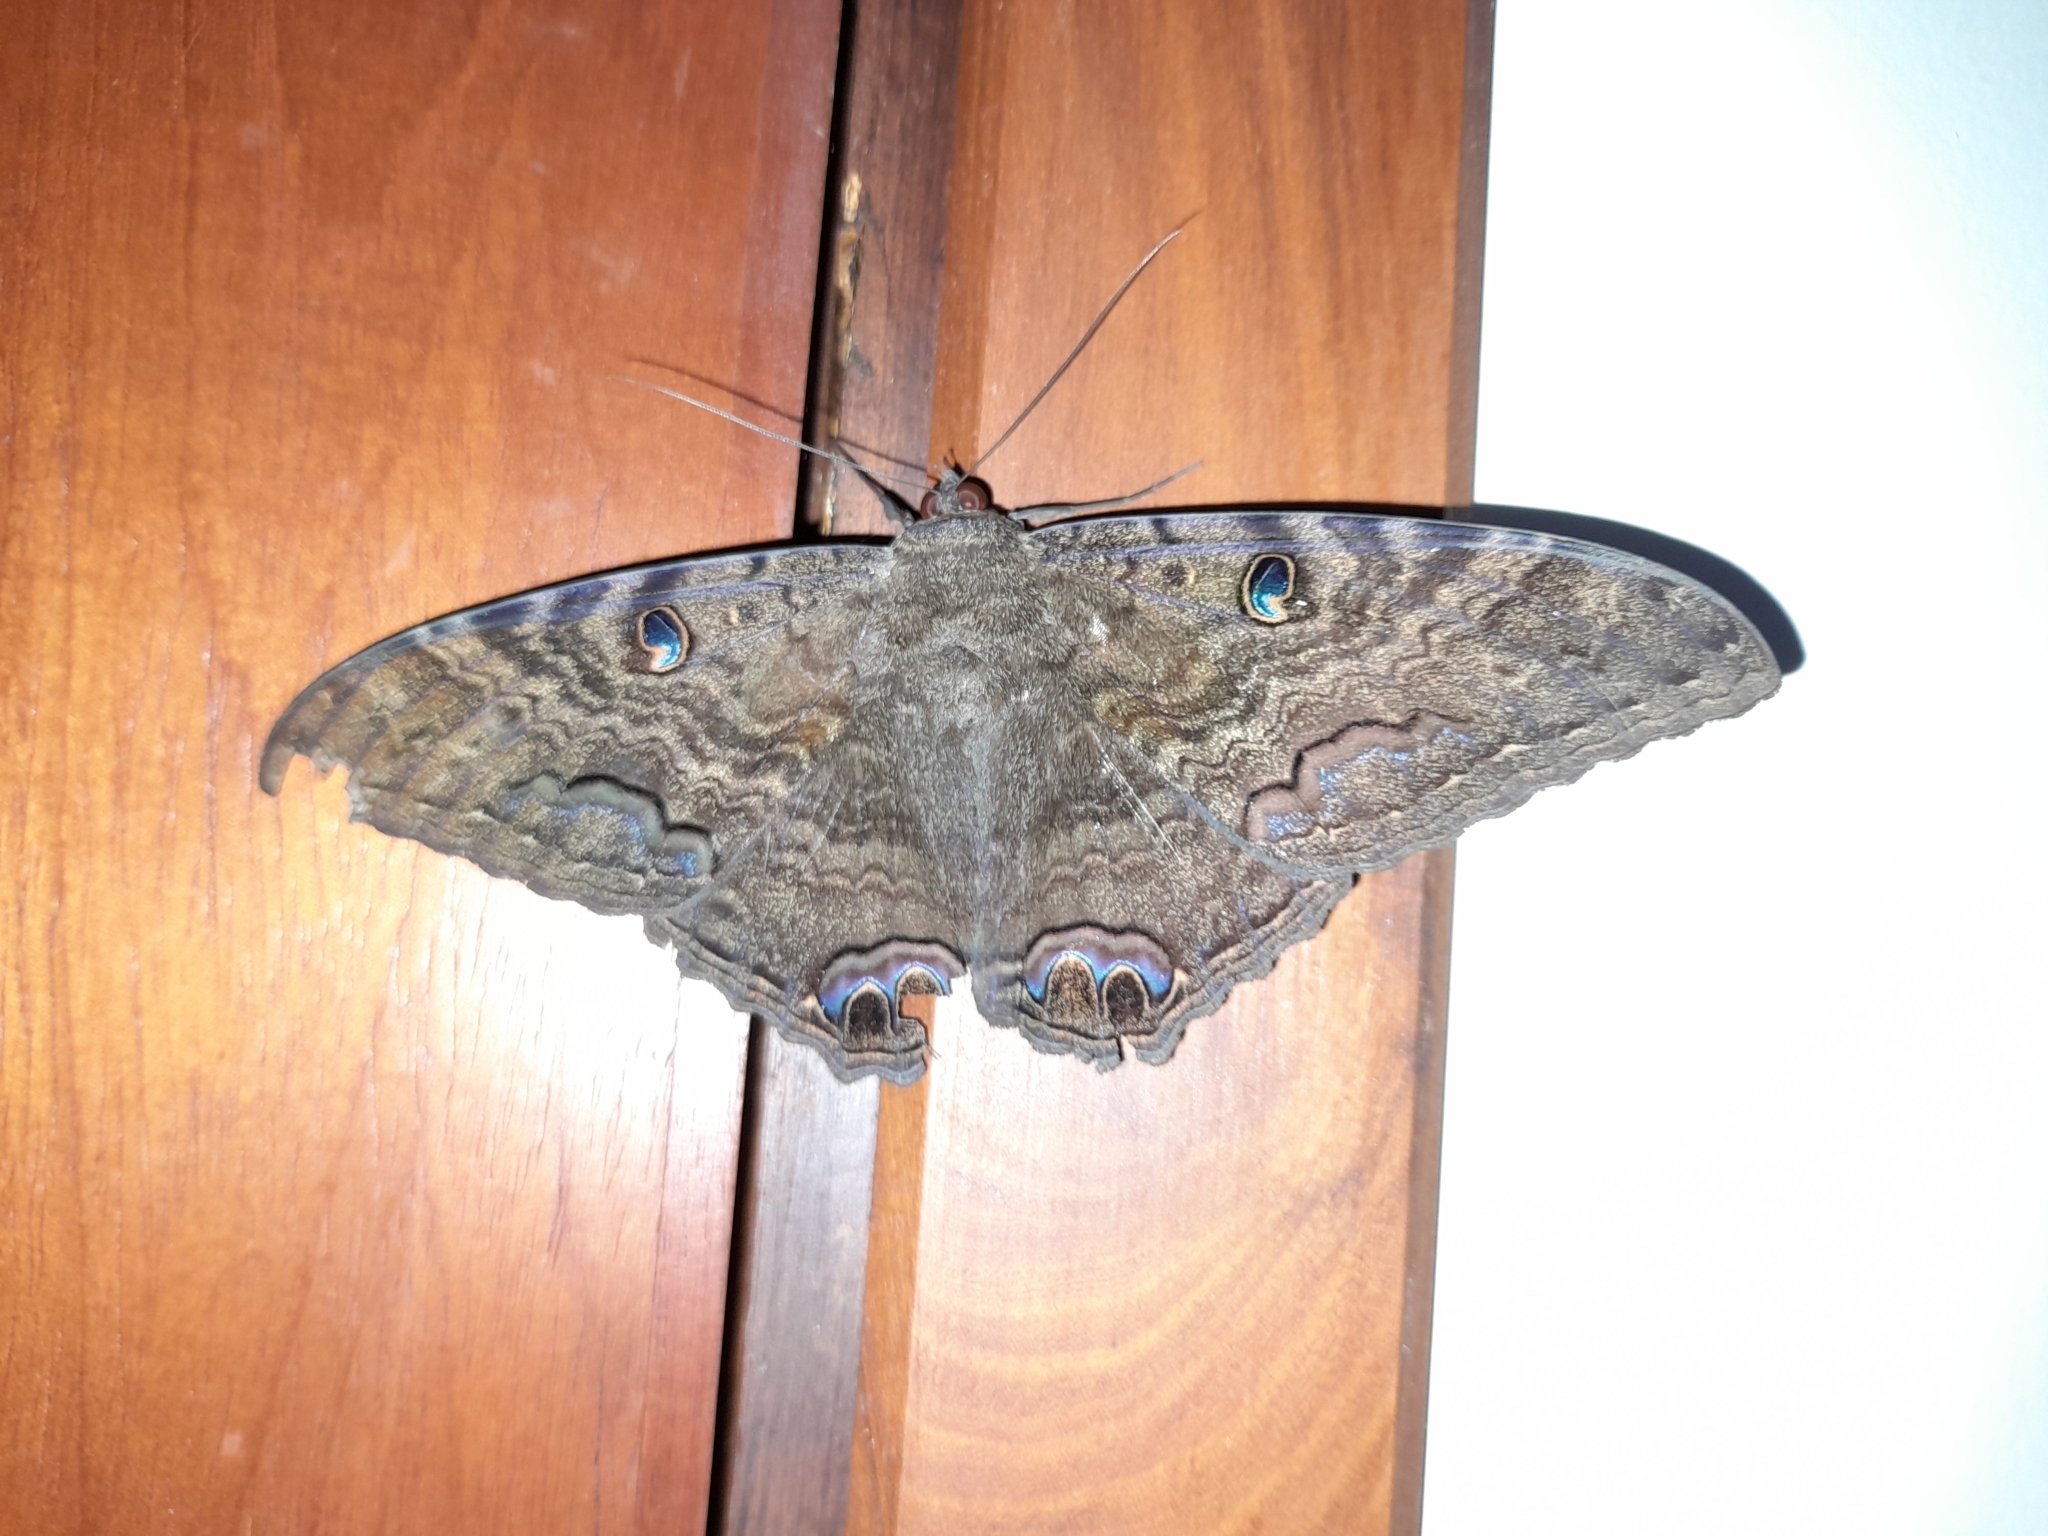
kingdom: Animalia
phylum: Arthropoda
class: Insecta
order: Lepidoptera
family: Erebidae
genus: Ascalapha
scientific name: Ascalapha odorata
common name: Black witch
